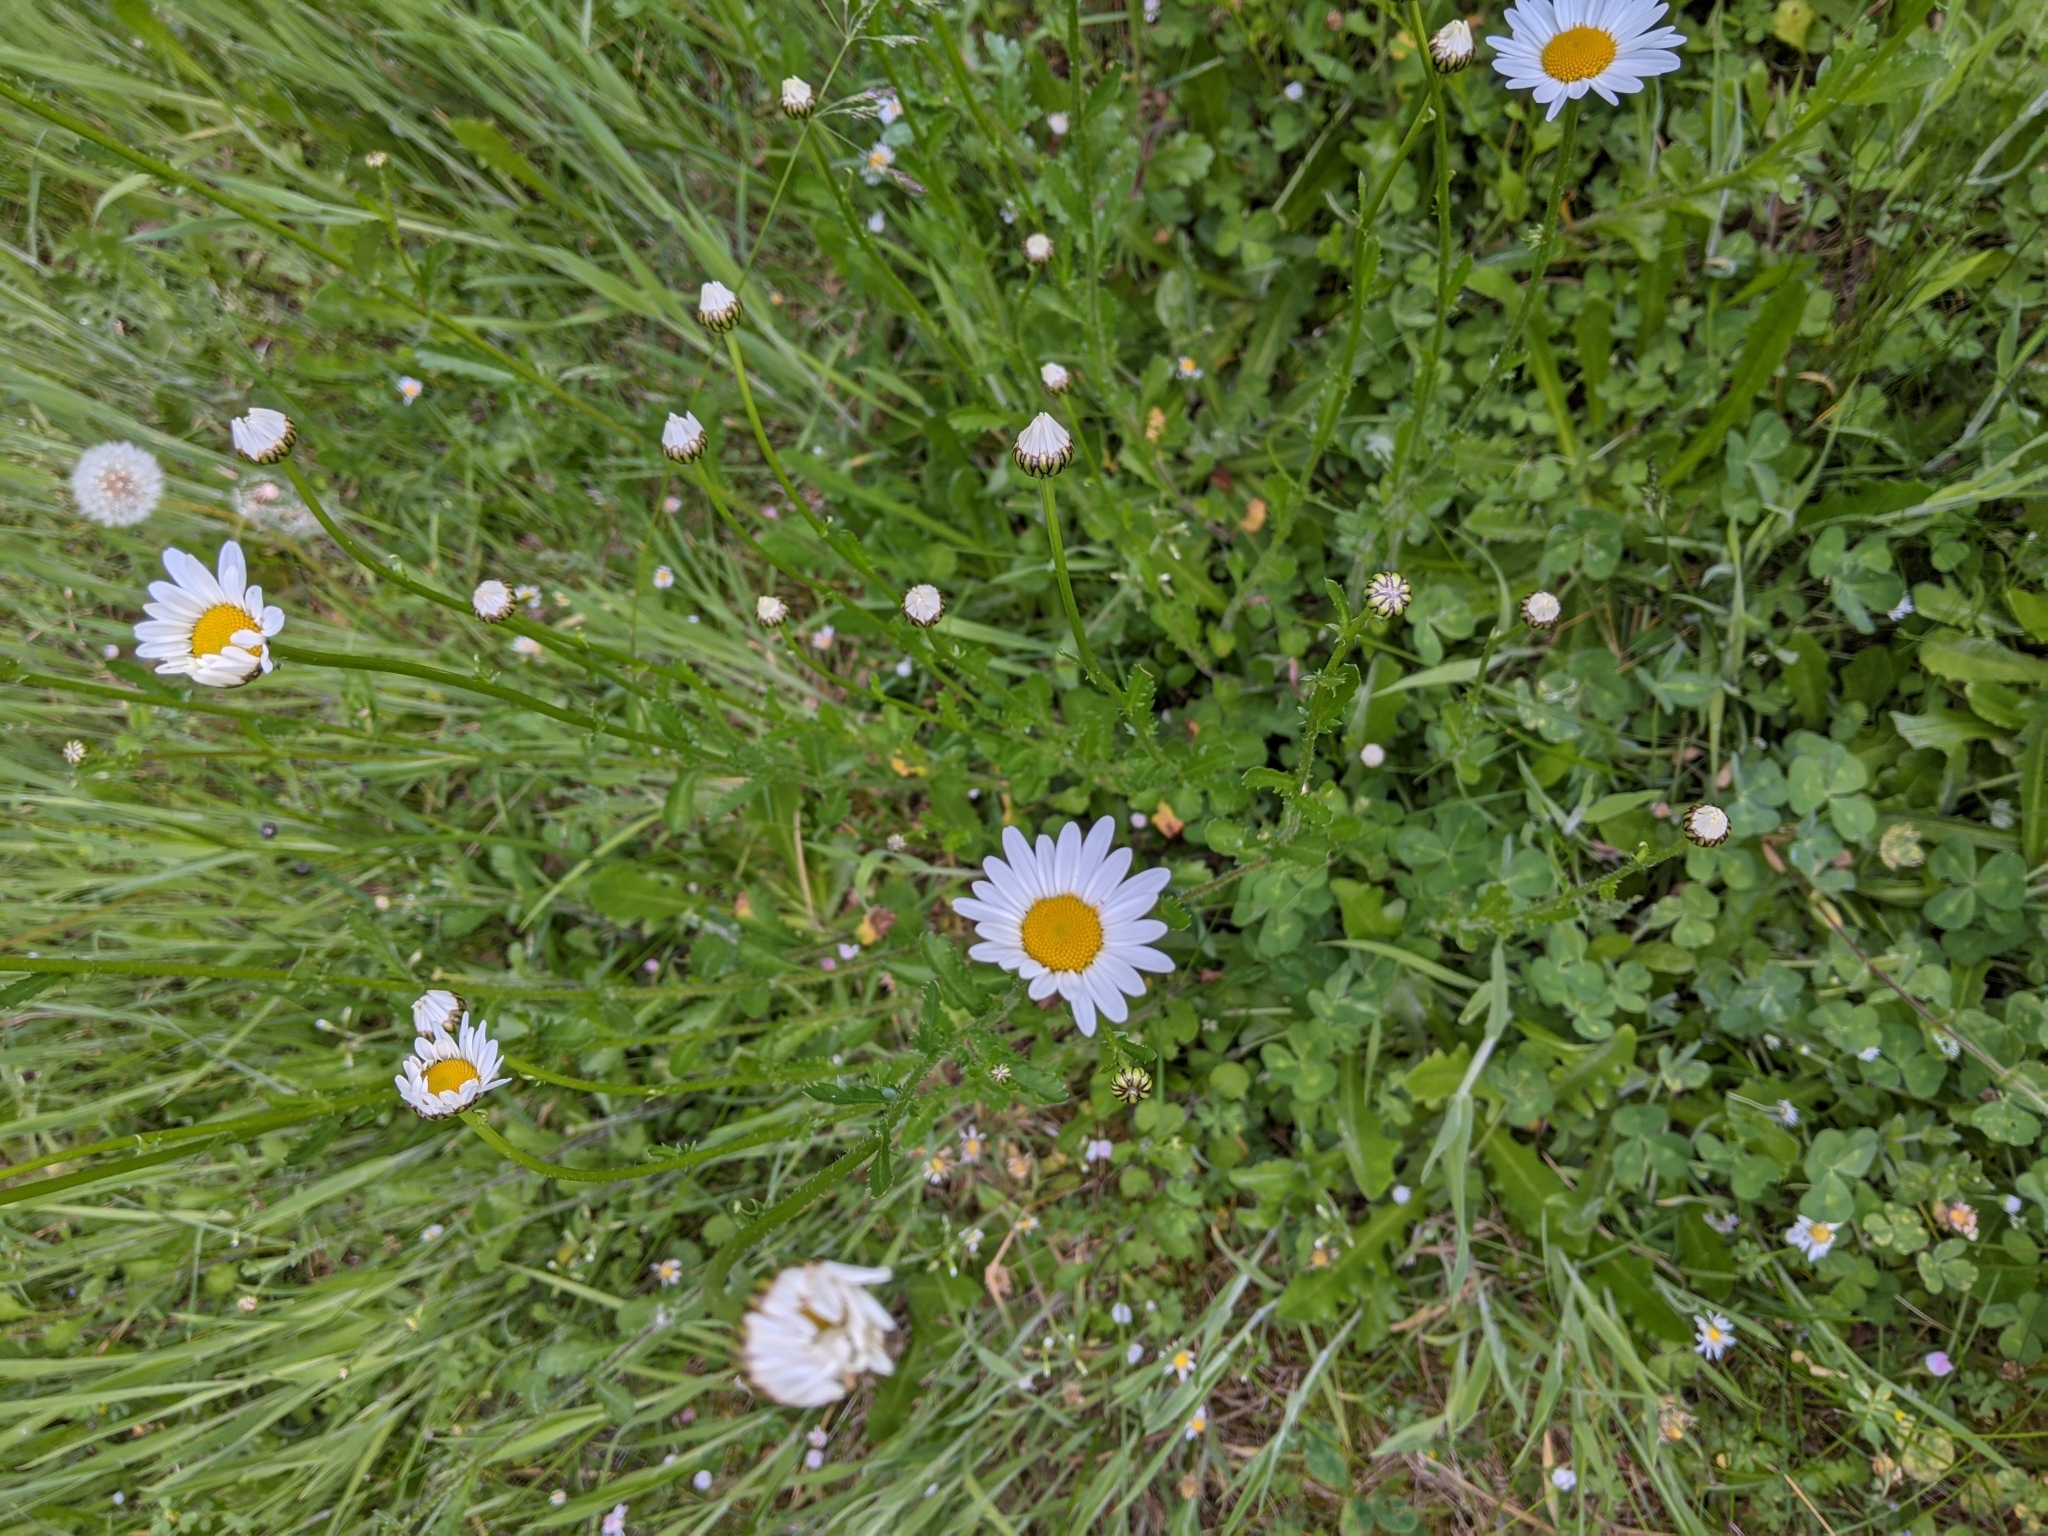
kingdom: Plantae
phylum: Tracheophyta
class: Magnoliopsida
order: Asterales
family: Asteraceae
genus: Leucanthemum
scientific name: Leucanthemum vulgare
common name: Oxeye daisy
